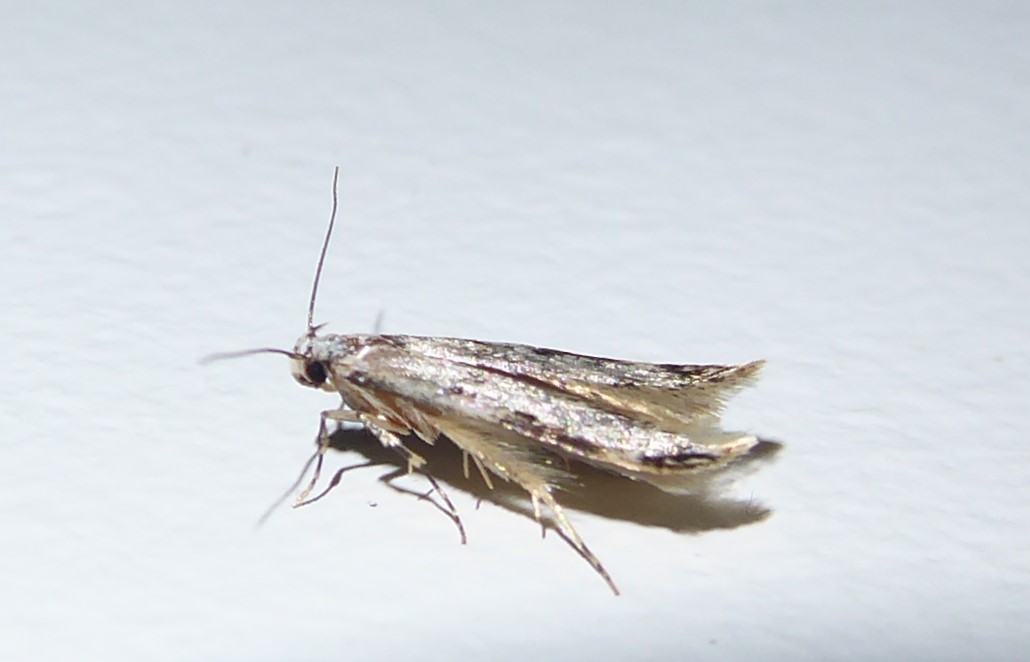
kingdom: Animalia
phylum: Arthropoda
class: Insecta
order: Lepidoptera
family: Oecophoridae
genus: Endrosis
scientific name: Endrosis sarcitrella
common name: White-shouldered house moth
